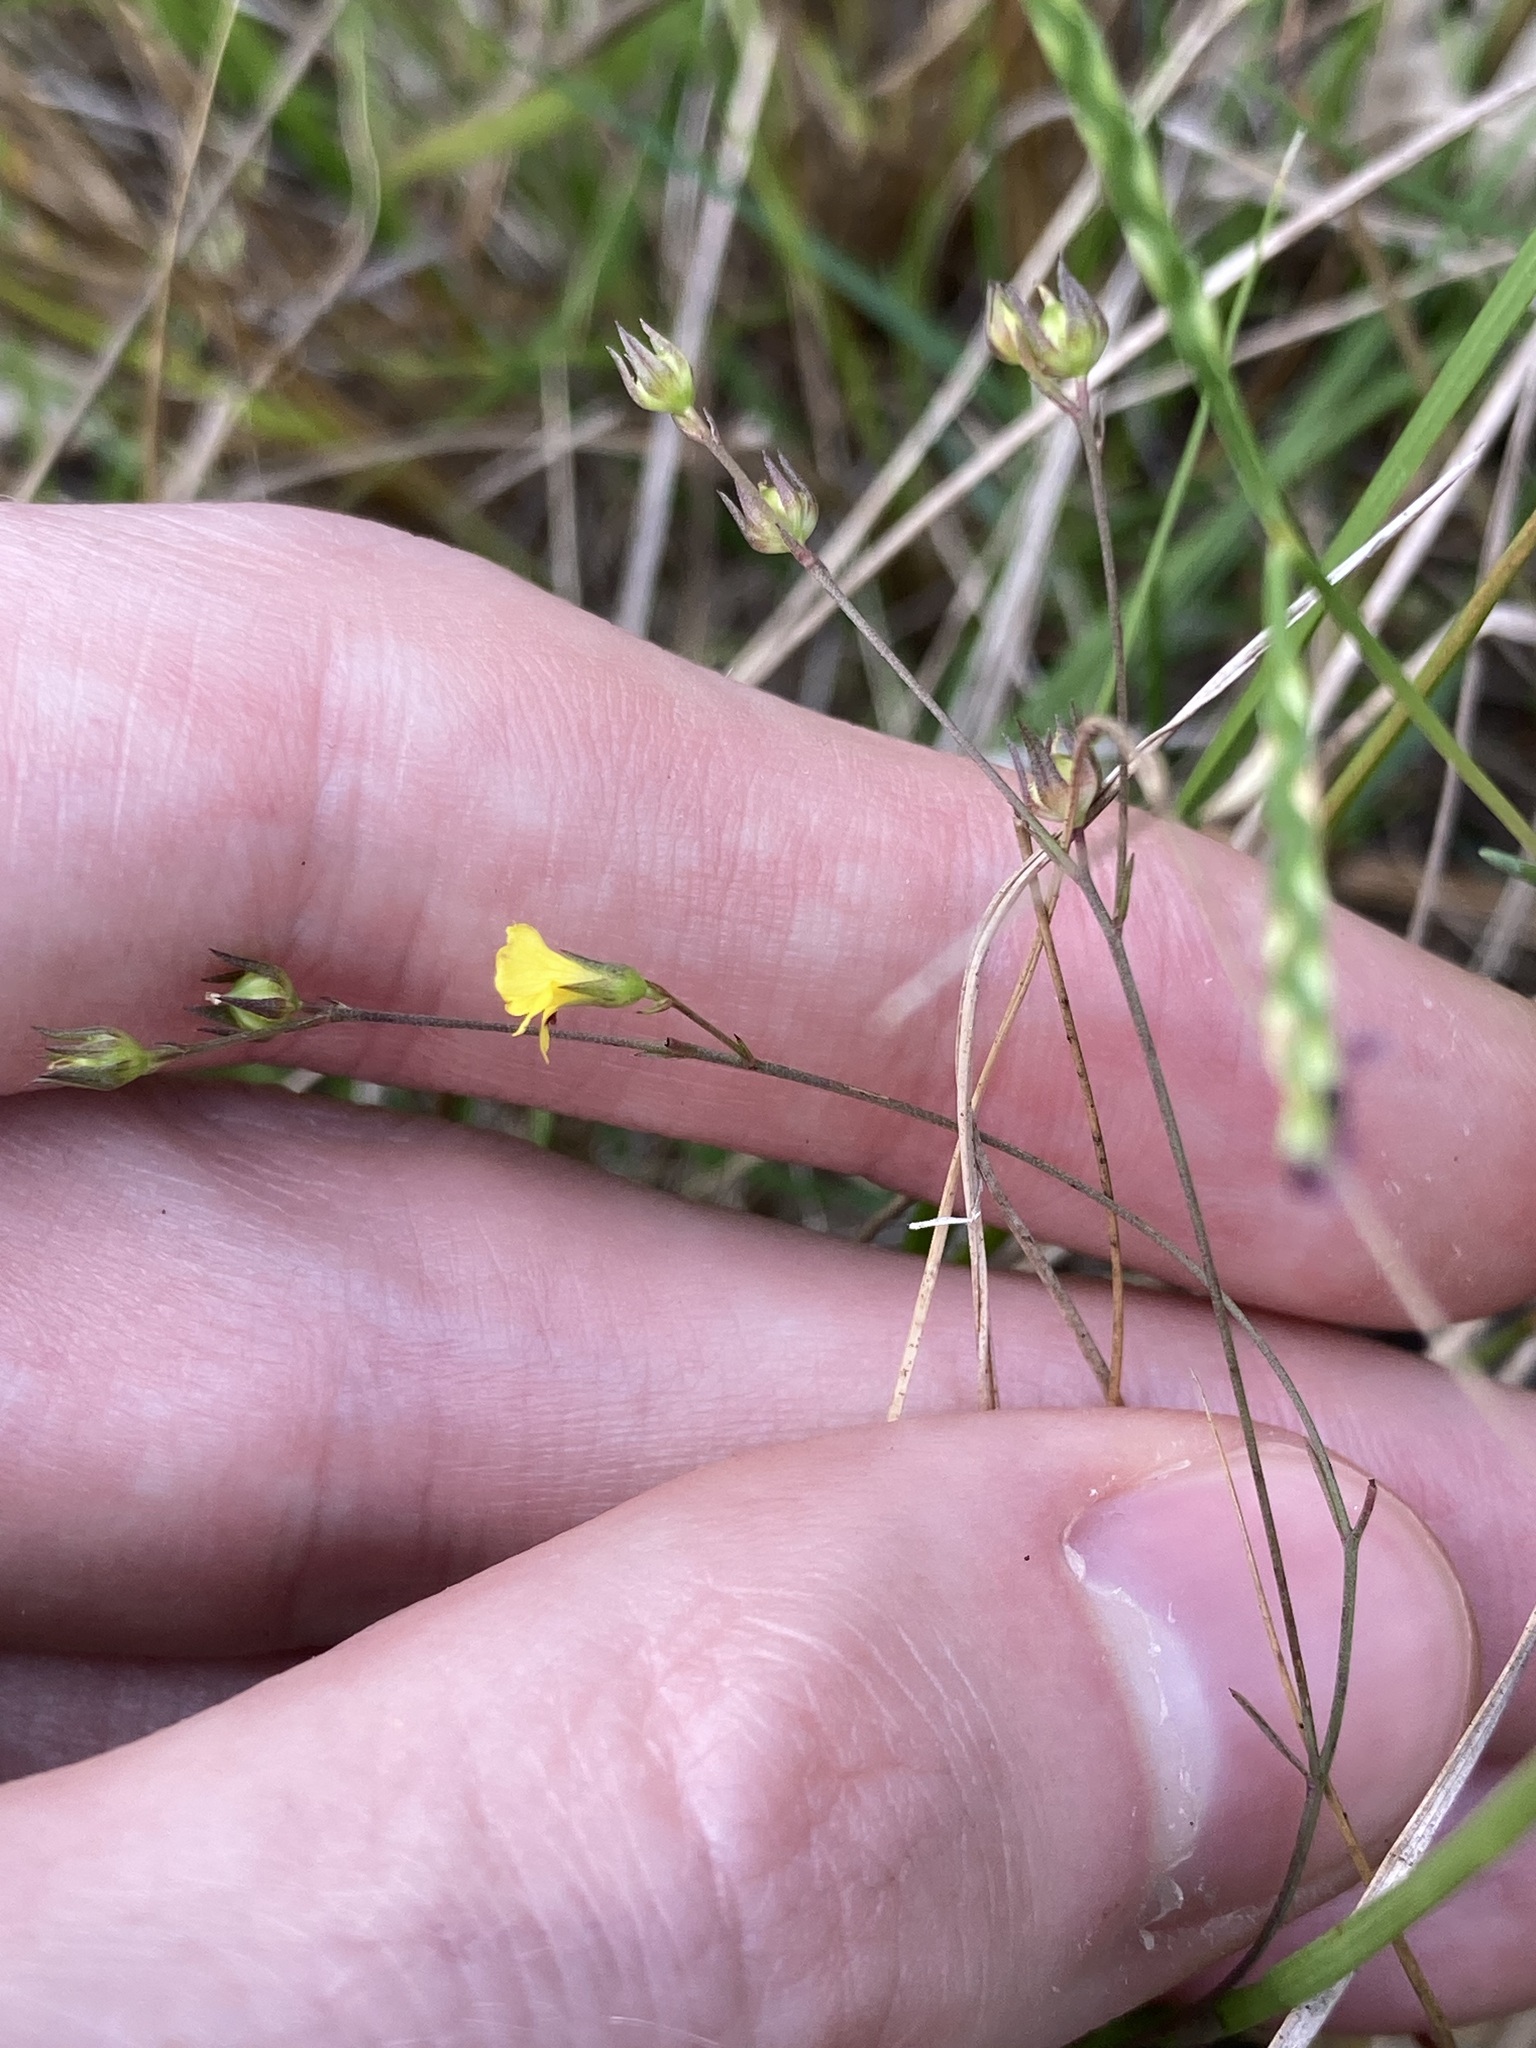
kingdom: Plantae
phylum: Tracheophyta
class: Magnoliopsida
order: Malpighiales
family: Linaceae
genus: Linum
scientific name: Linum trigynum
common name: French flax
